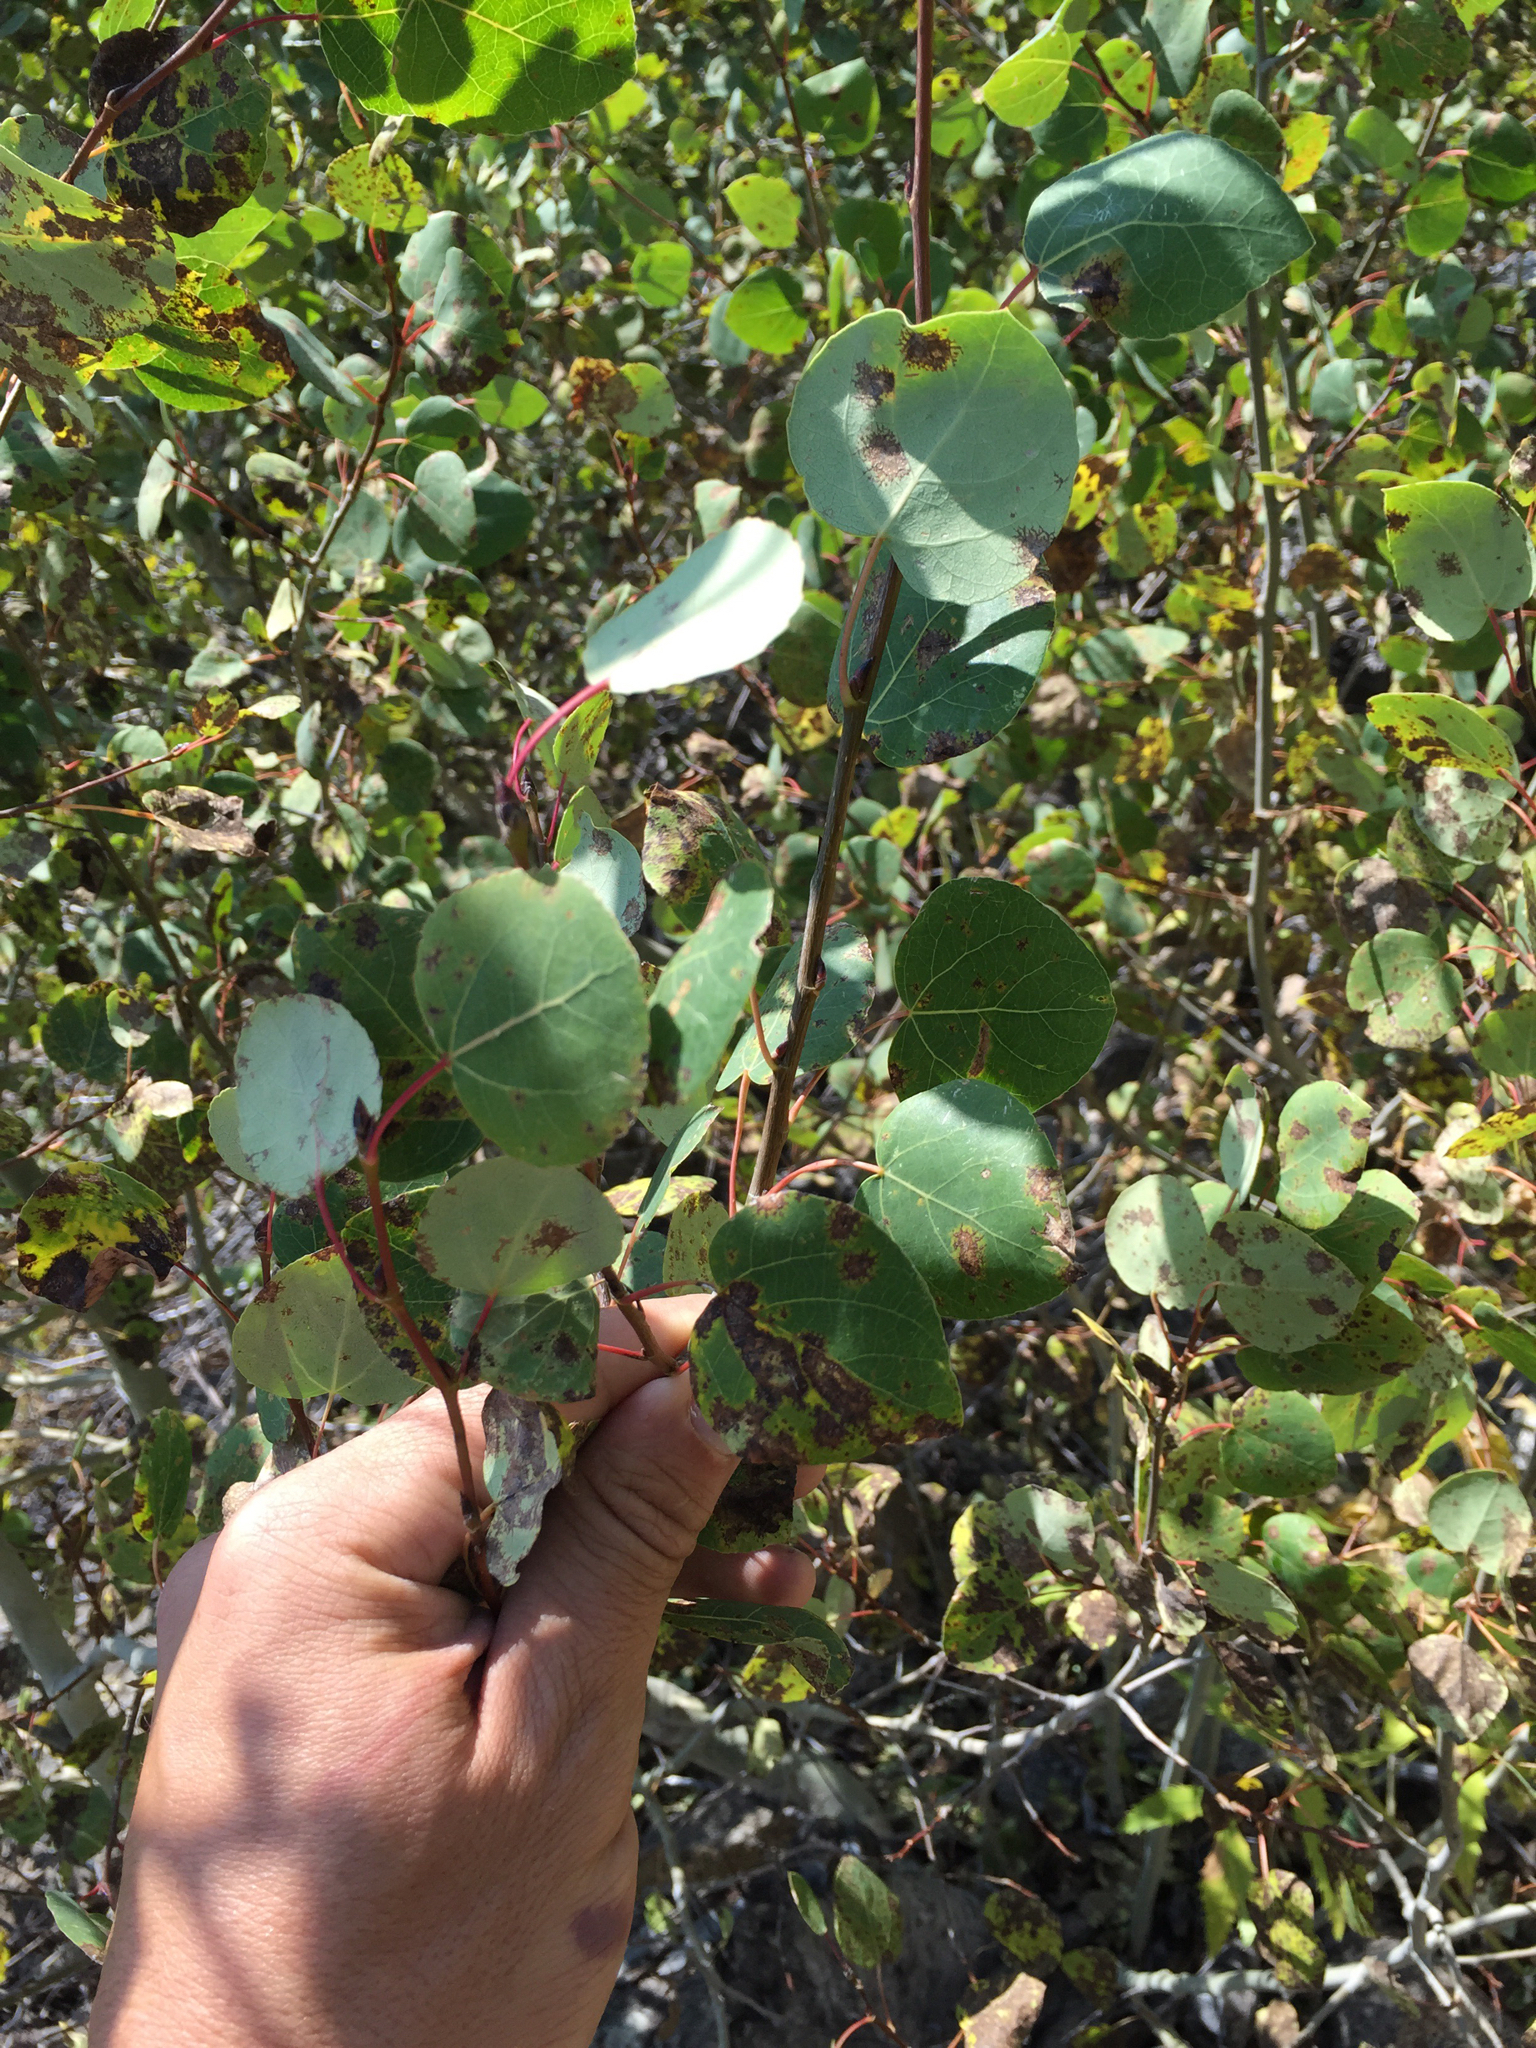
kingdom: Plantae
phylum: Tracheophyta
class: Magnoliopsida
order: Malpighiales
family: Salicaceae
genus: Populus
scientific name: Populus tremuloides
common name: Quaking aspen
